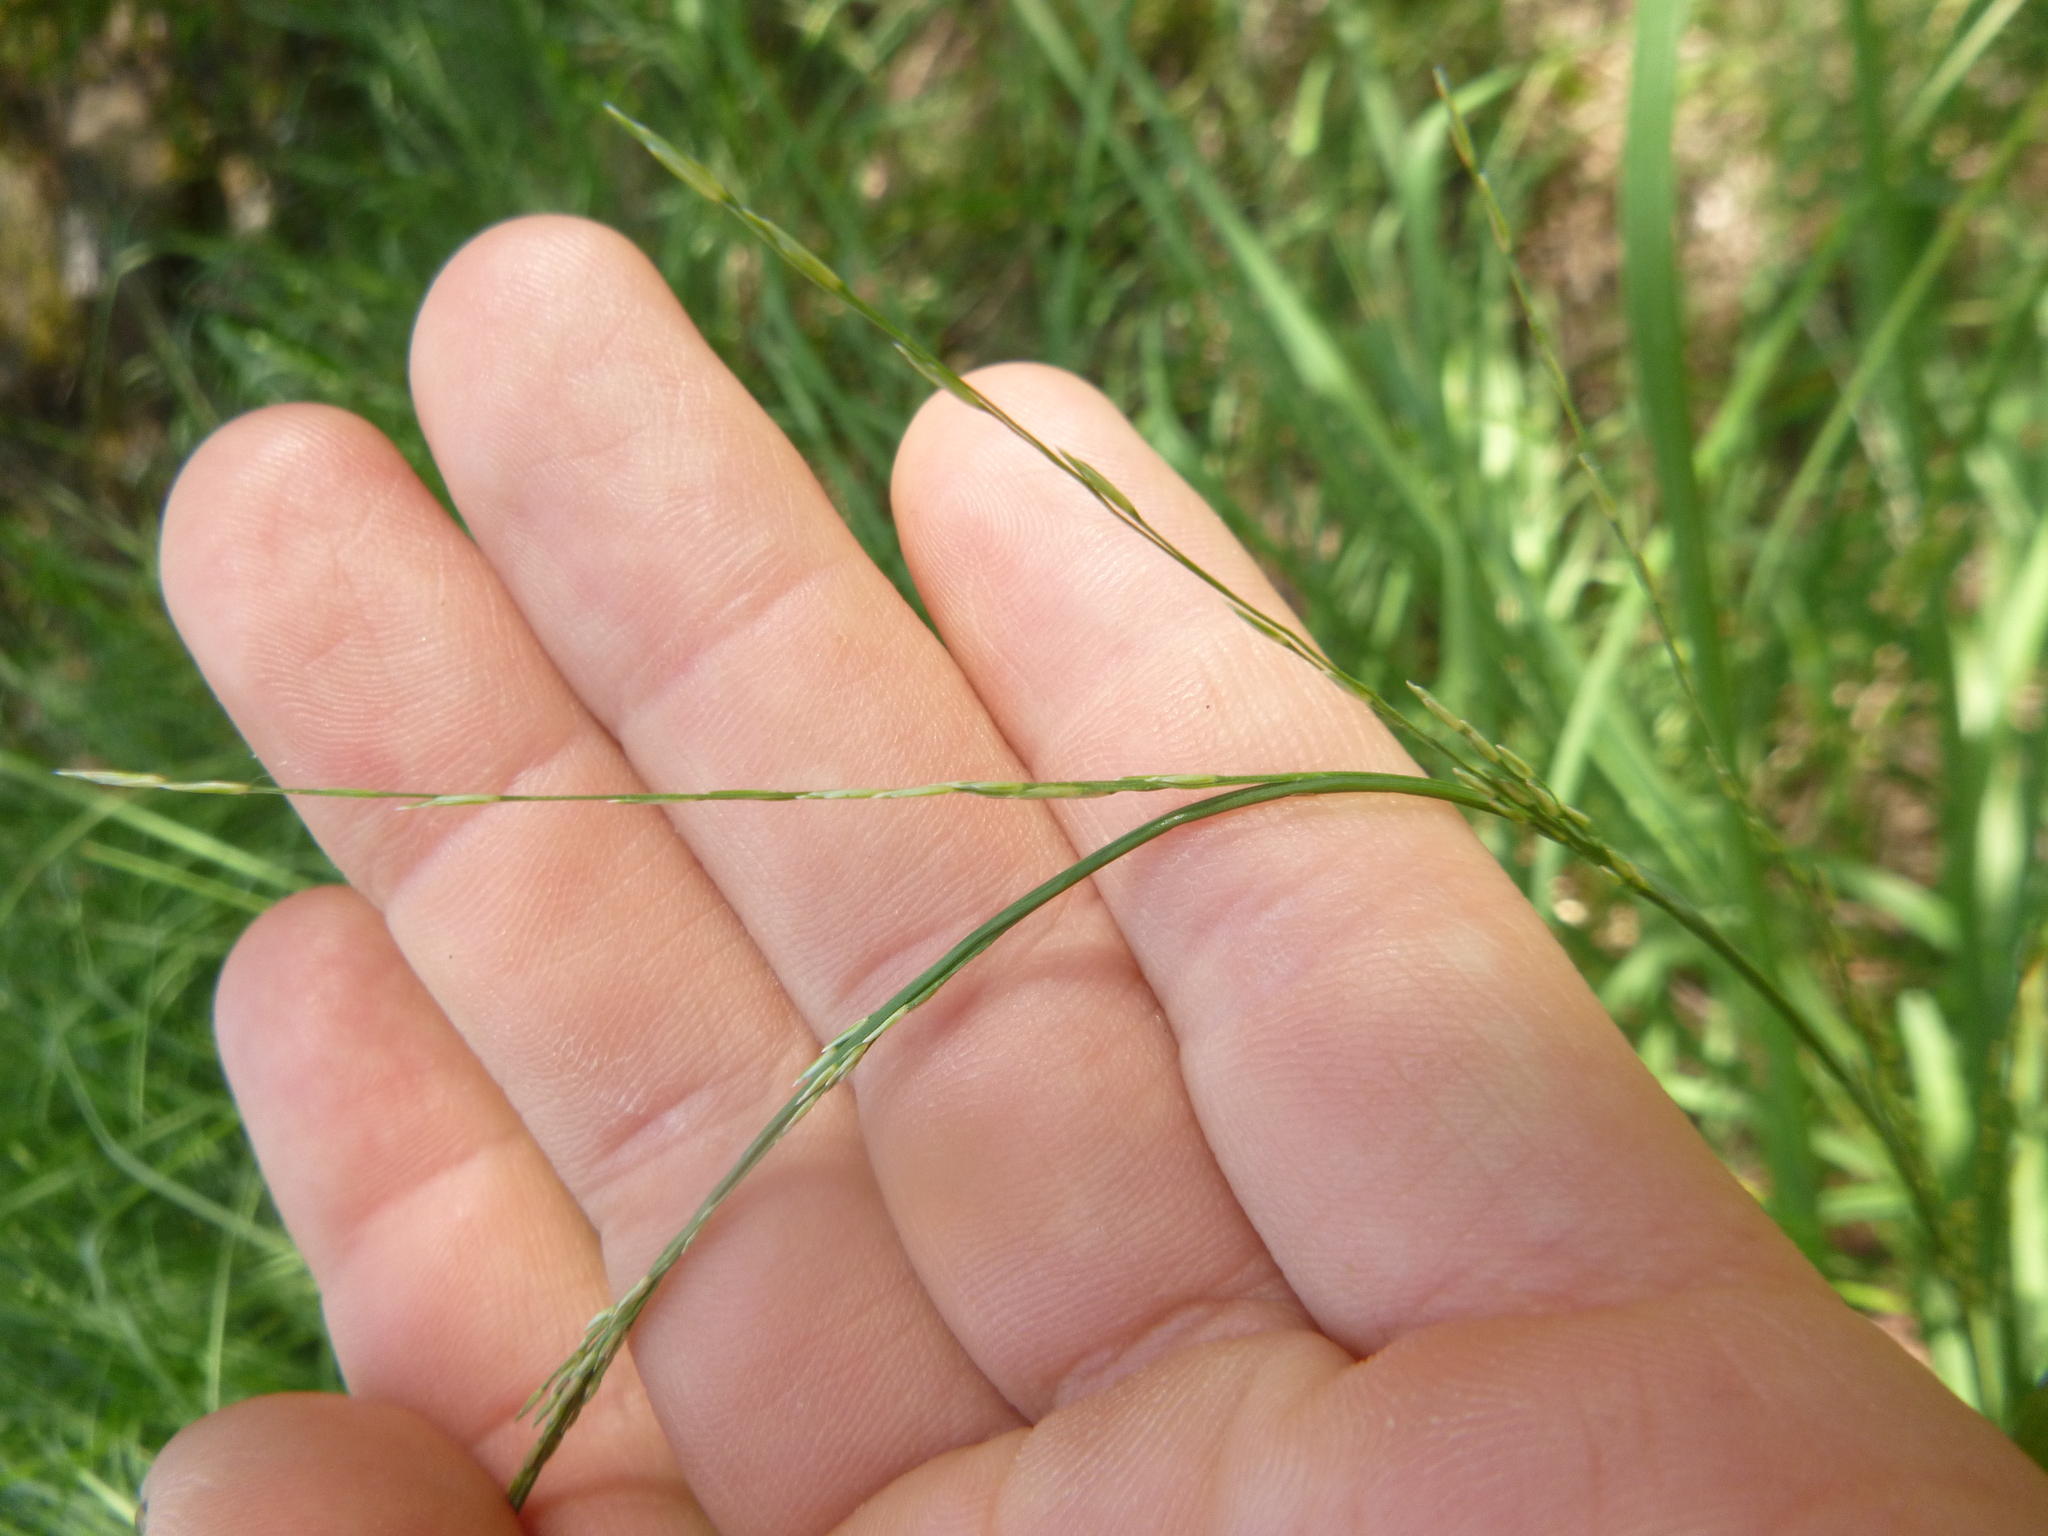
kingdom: Plantae
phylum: Tracheophyta
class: Liliopsida
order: Poales
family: Poaceae
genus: Molinia
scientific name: Molinia caerulea
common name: Purple moor-grass
